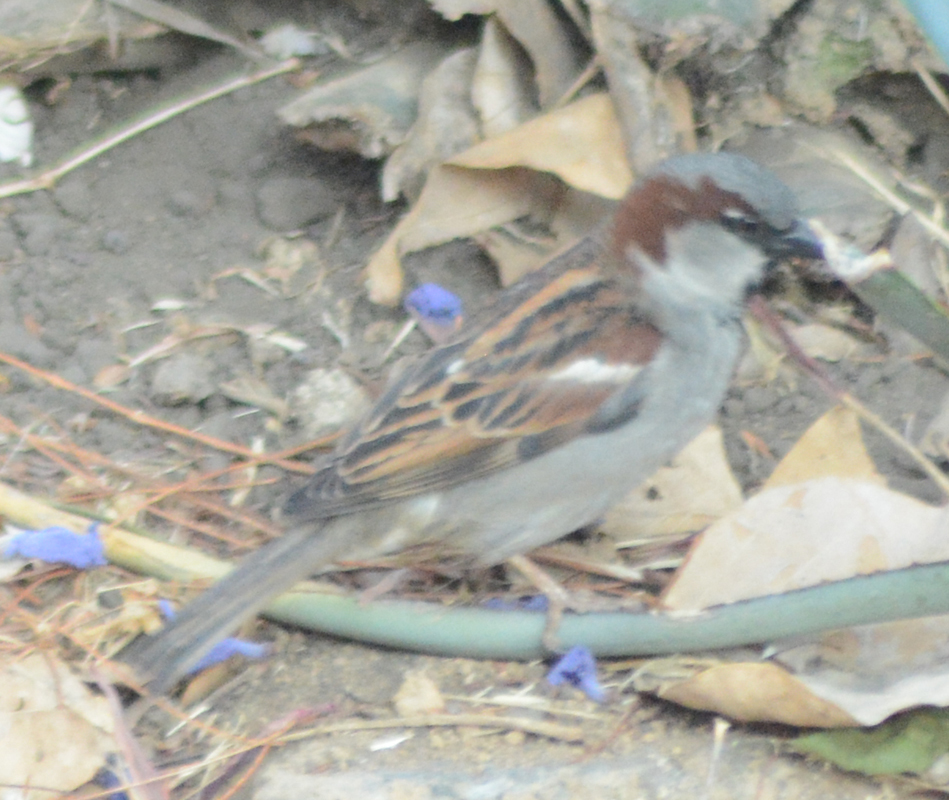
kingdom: Animalia
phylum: Chordata
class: Aves
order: Passeriformes
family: Passeridae
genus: Passer
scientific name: Passer domesticus
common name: House sparrow
